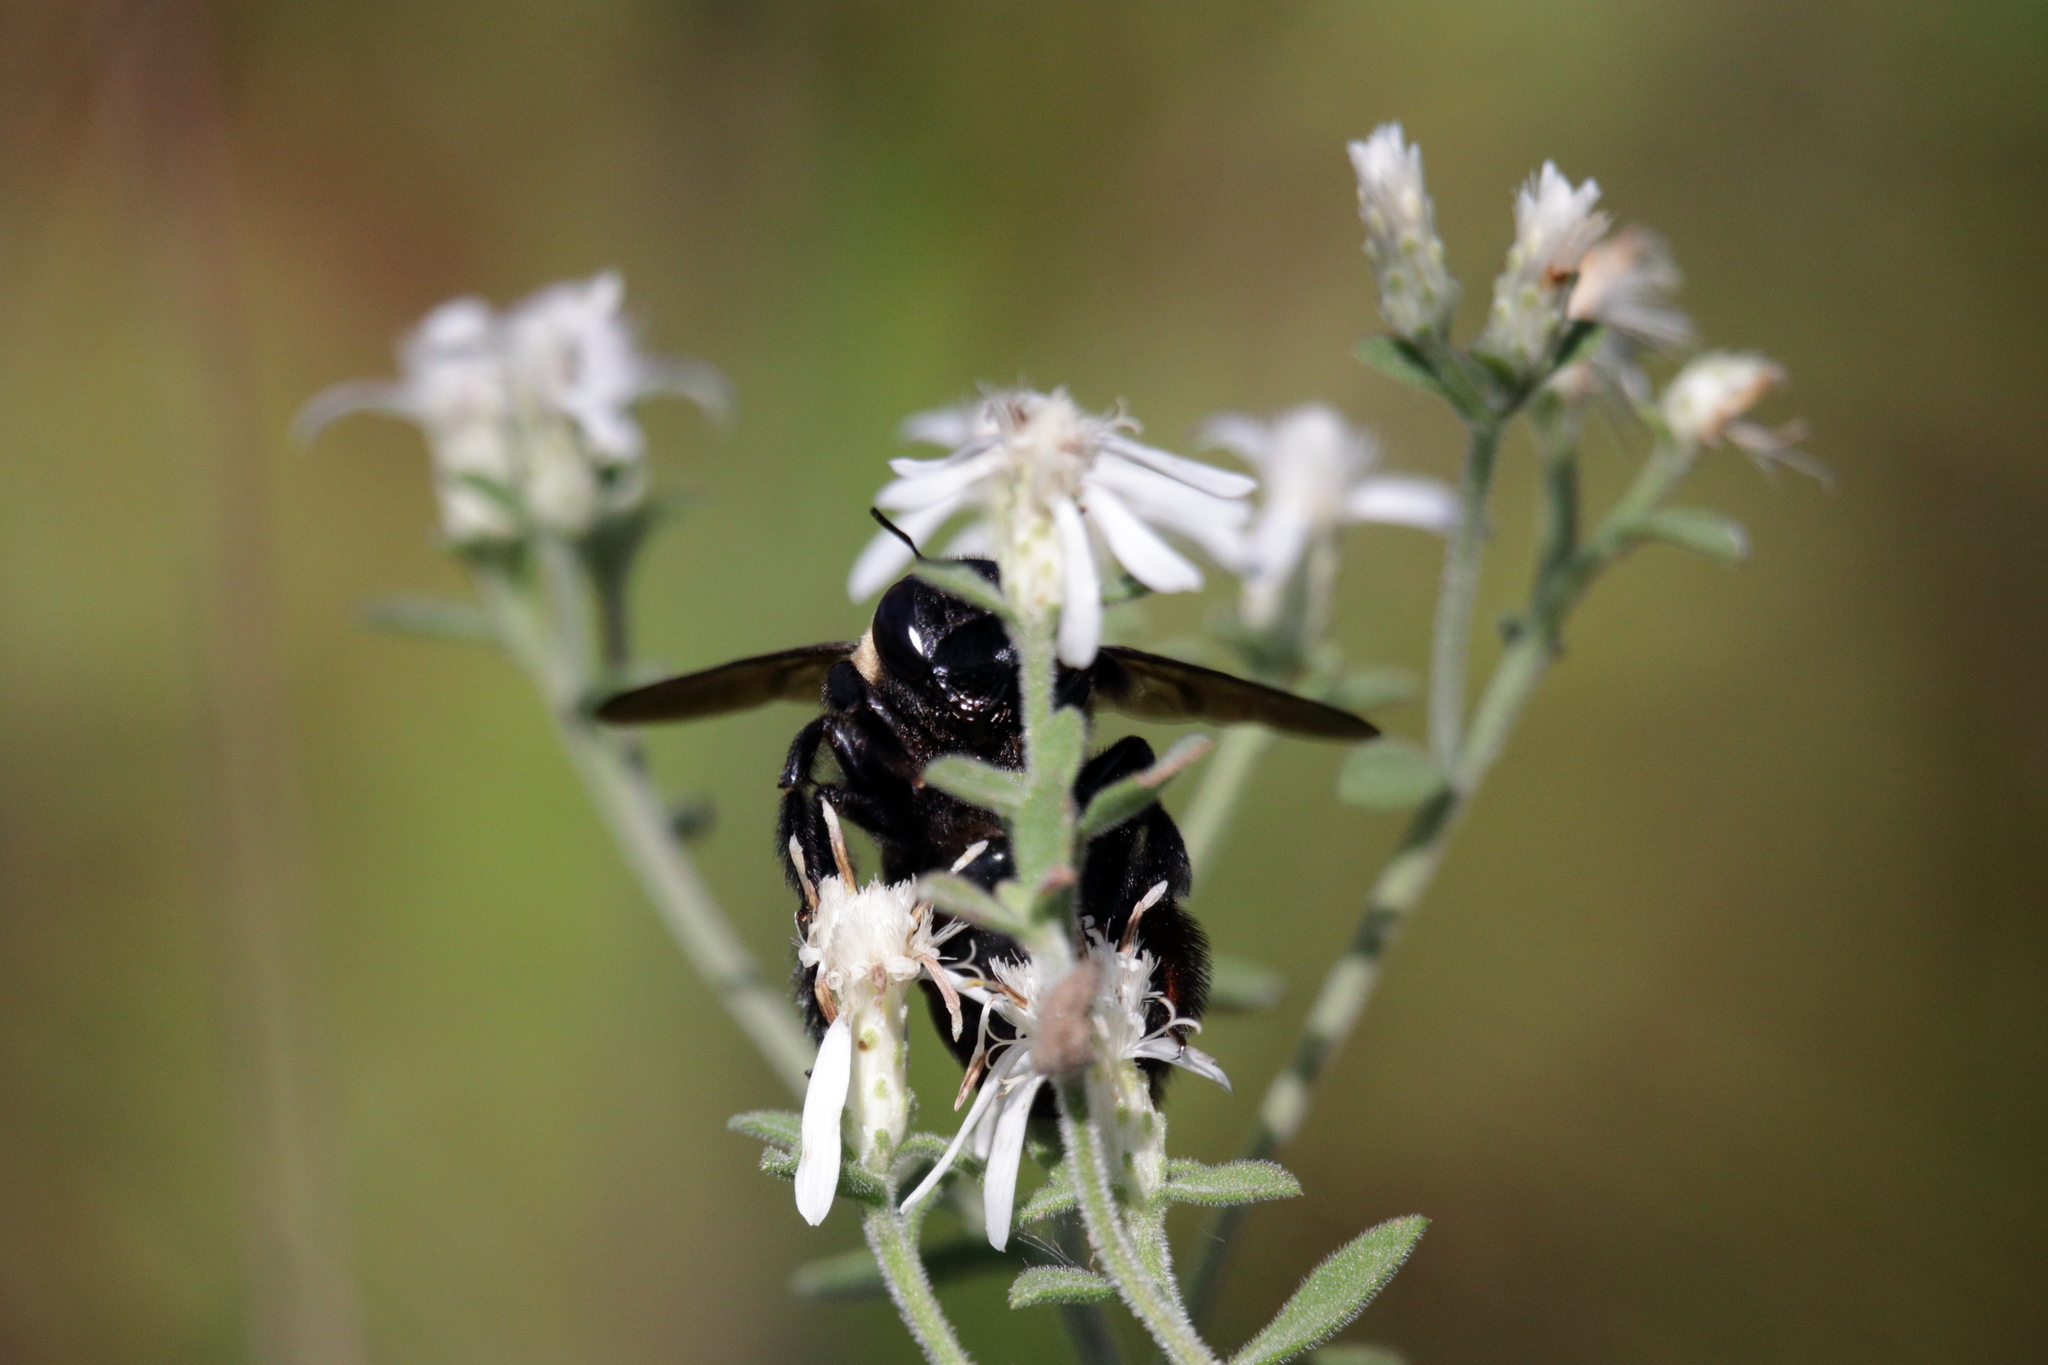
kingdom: Animalia
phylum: Arthropoda
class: Insecta
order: Hymenoptera
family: Tiphiidae
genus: Myzinum
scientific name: Myzinum maculatum
